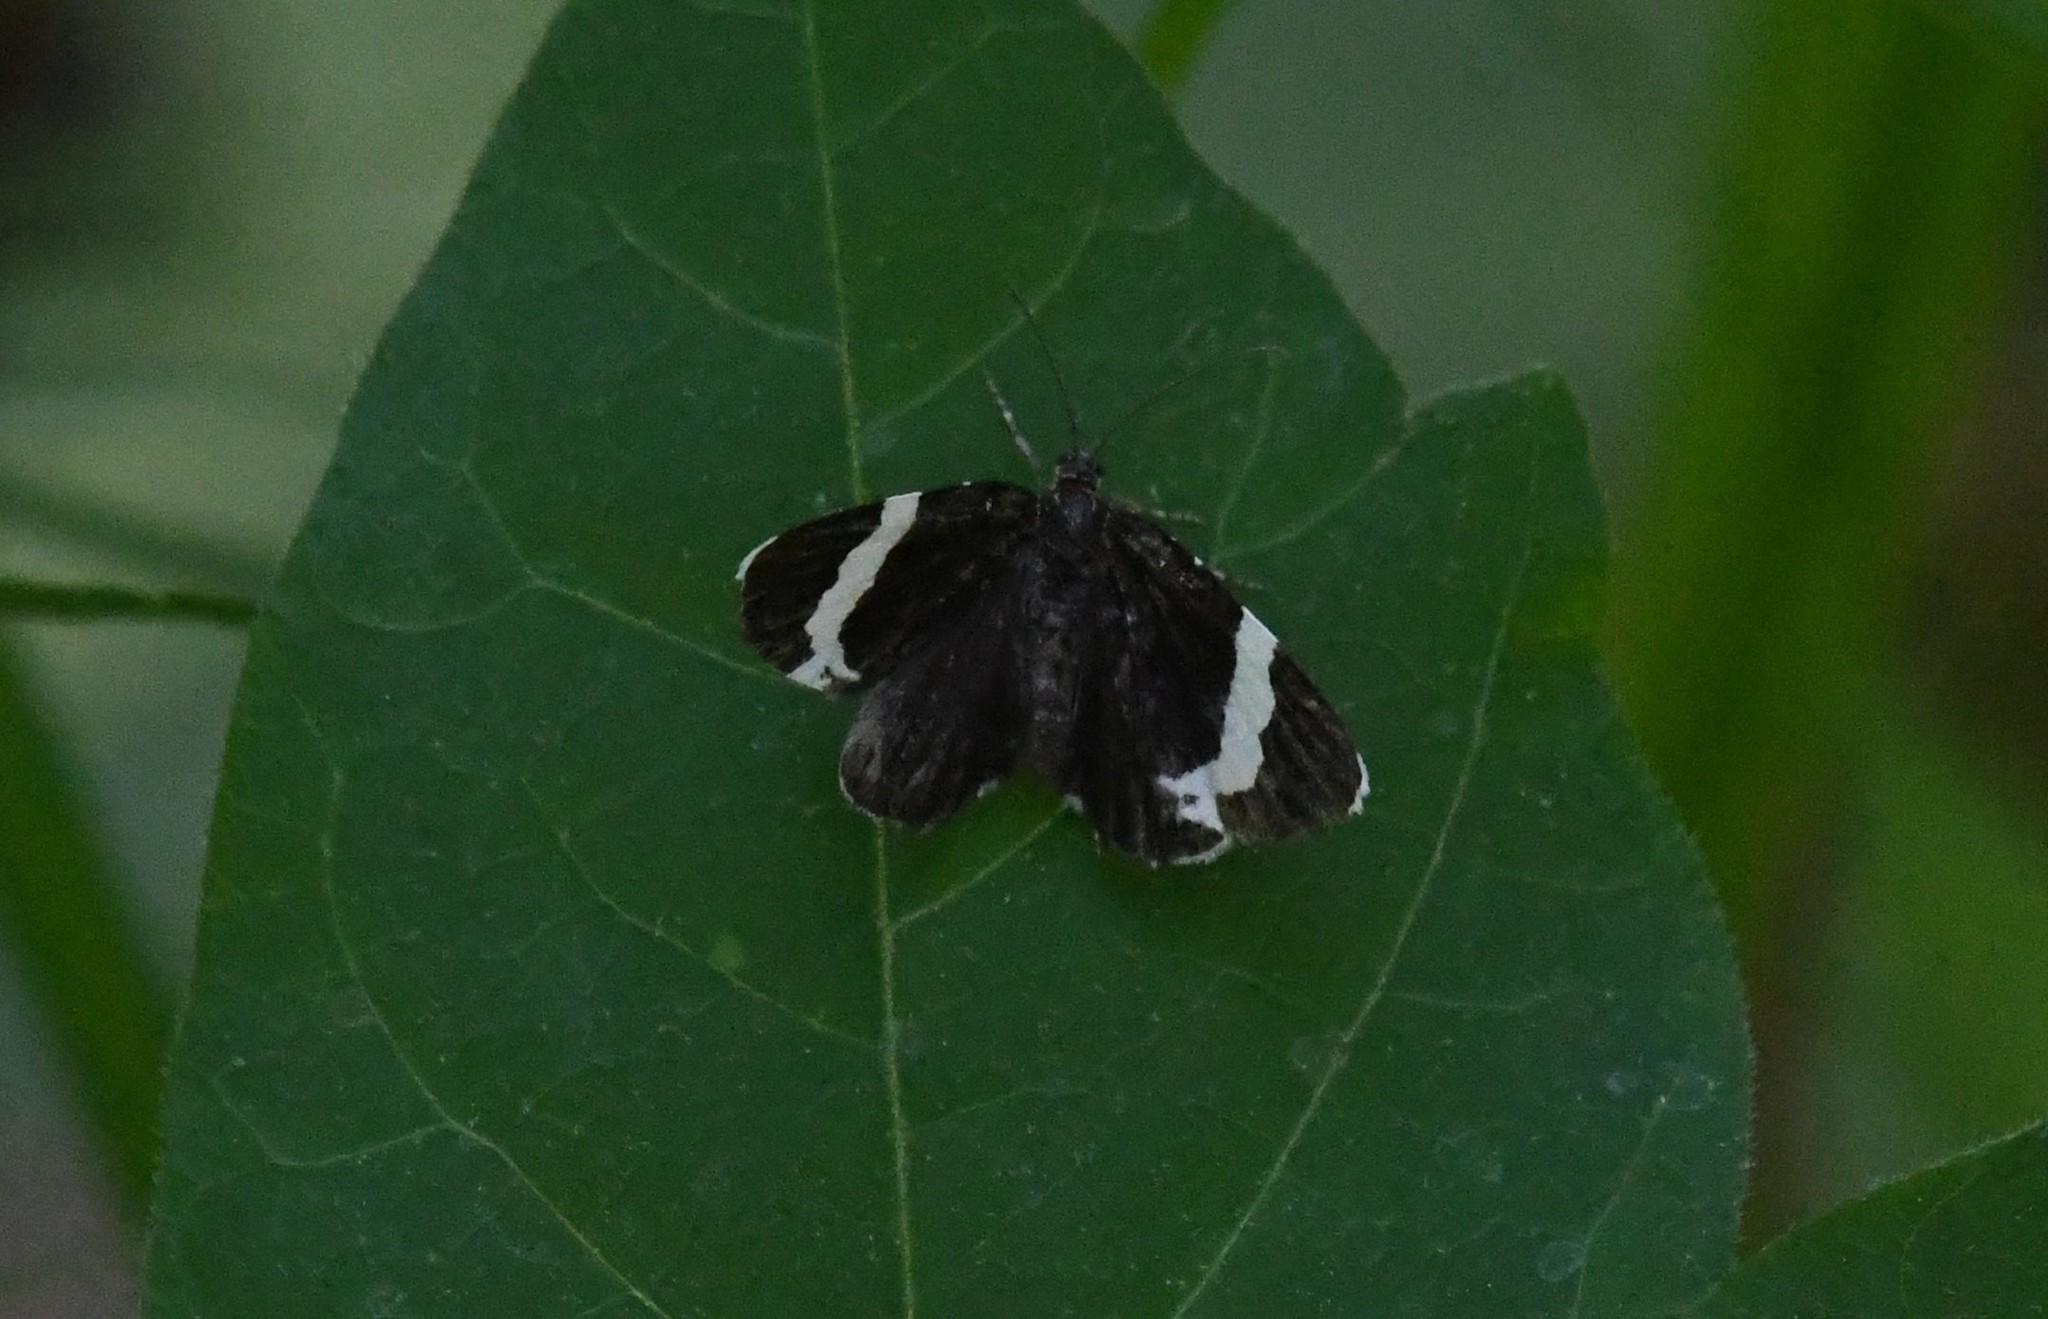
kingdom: Animalia
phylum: Arthropoda
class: Insecta
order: Lepidoptera
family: Geometridae
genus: Trichodezia
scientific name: Trichodezia albovittata
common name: White striped black
